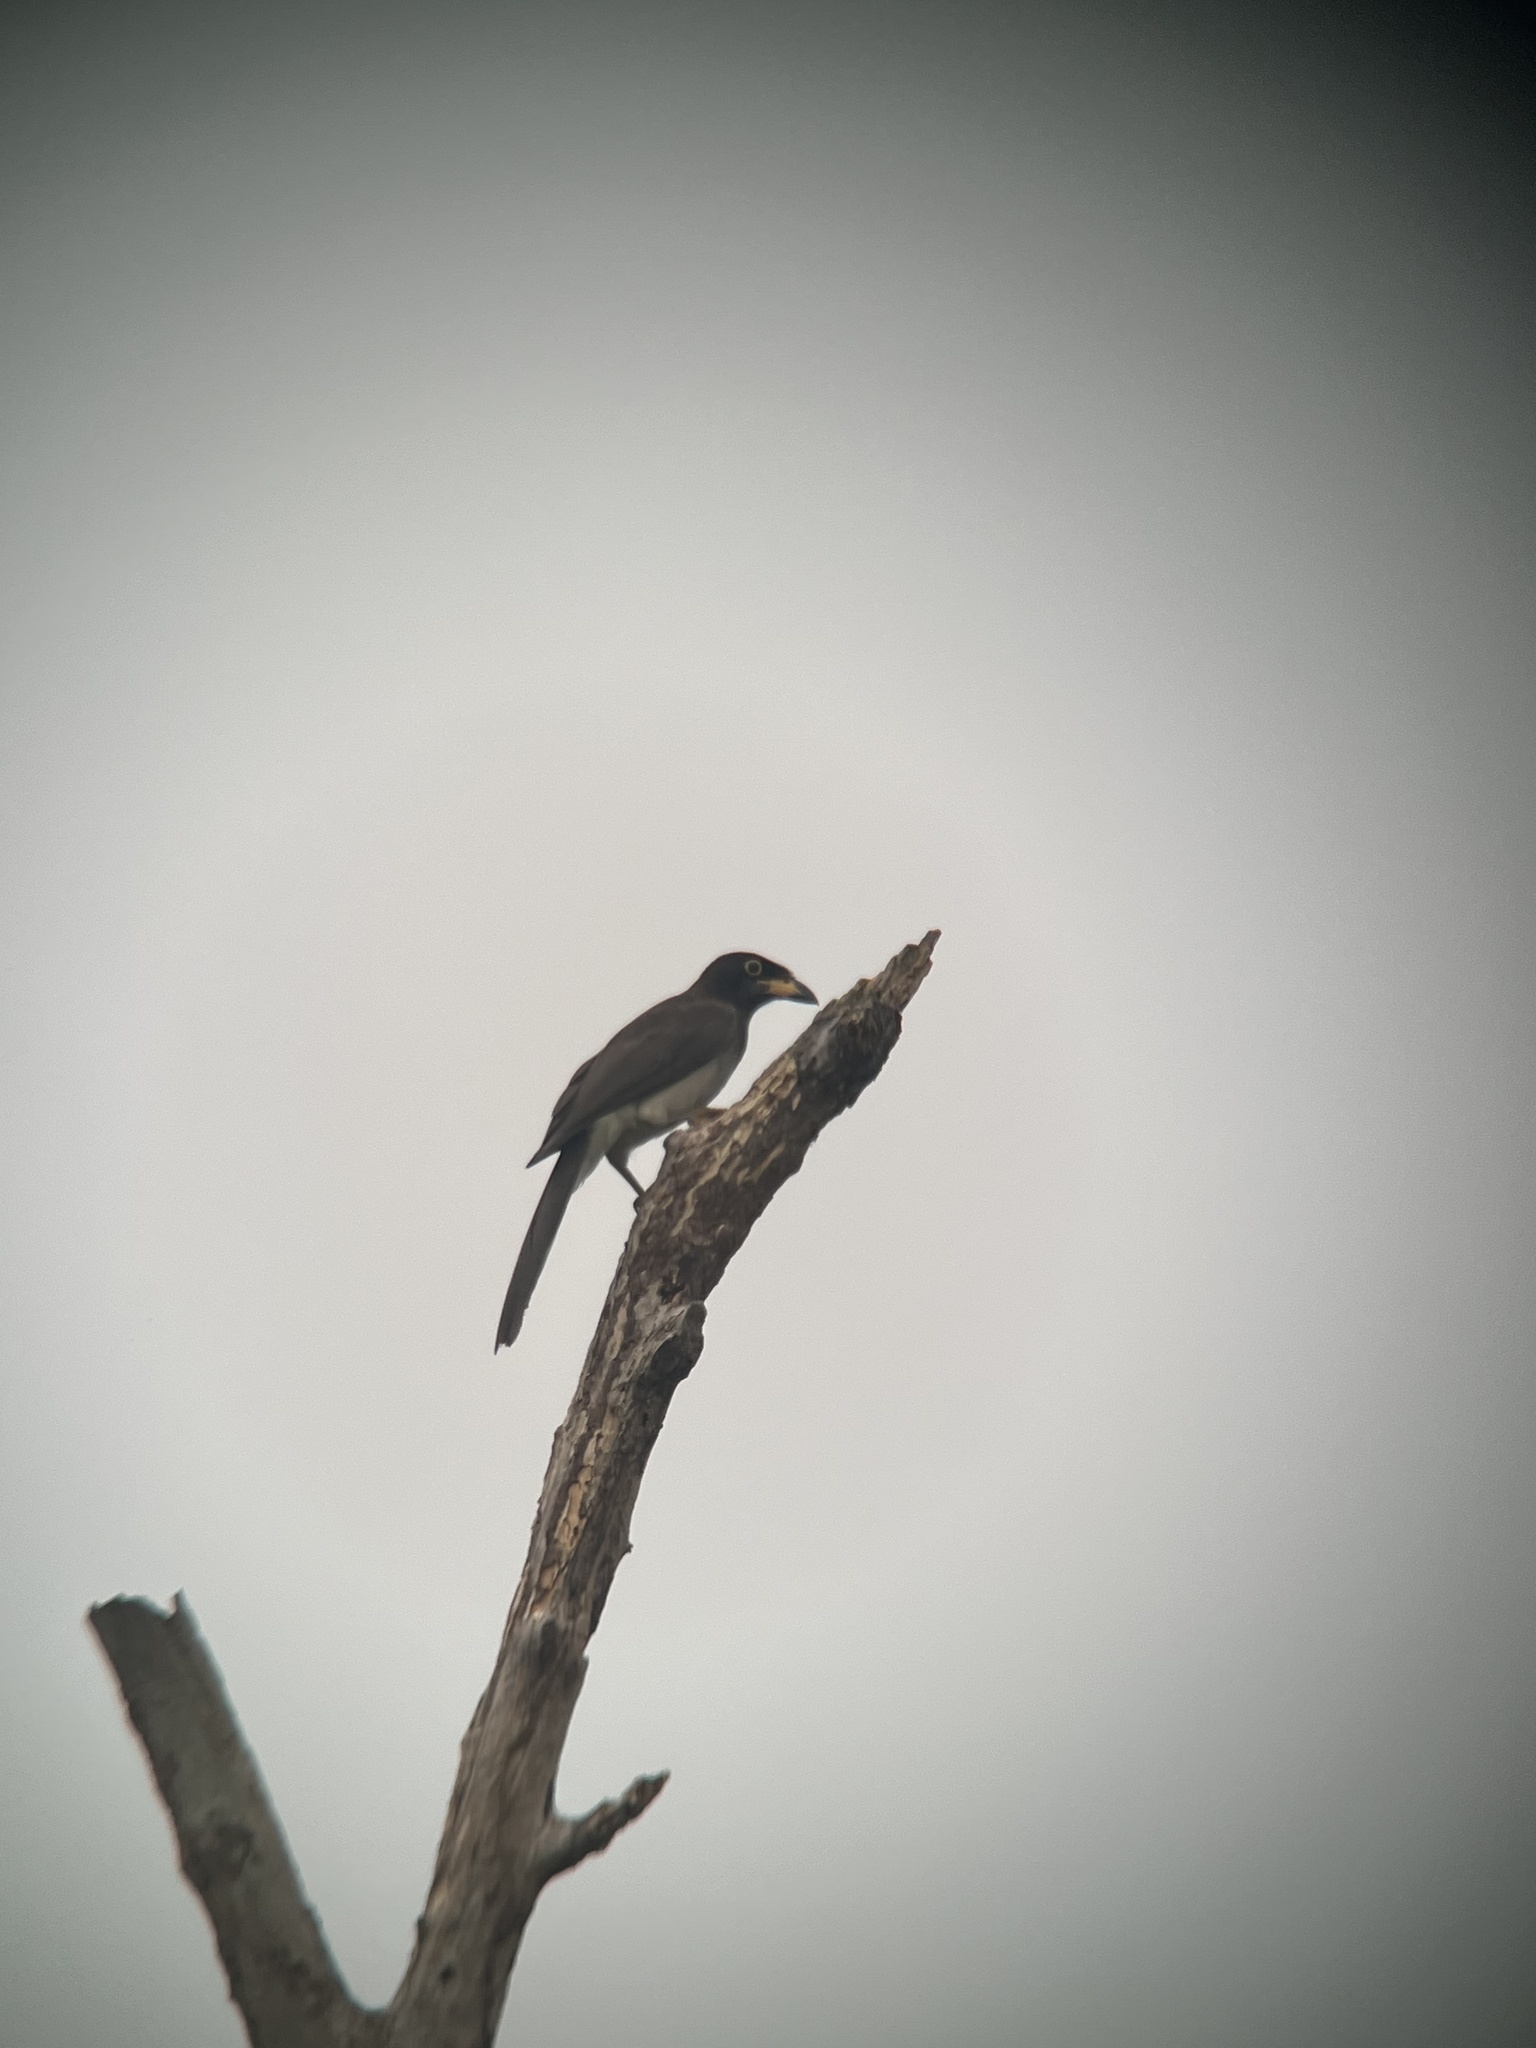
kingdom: Animalia
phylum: Chordata
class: Aves
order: Passeriformes
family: Corvidae
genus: Psilorhinus
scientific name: Psilorhinus morio
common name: Brown jay
